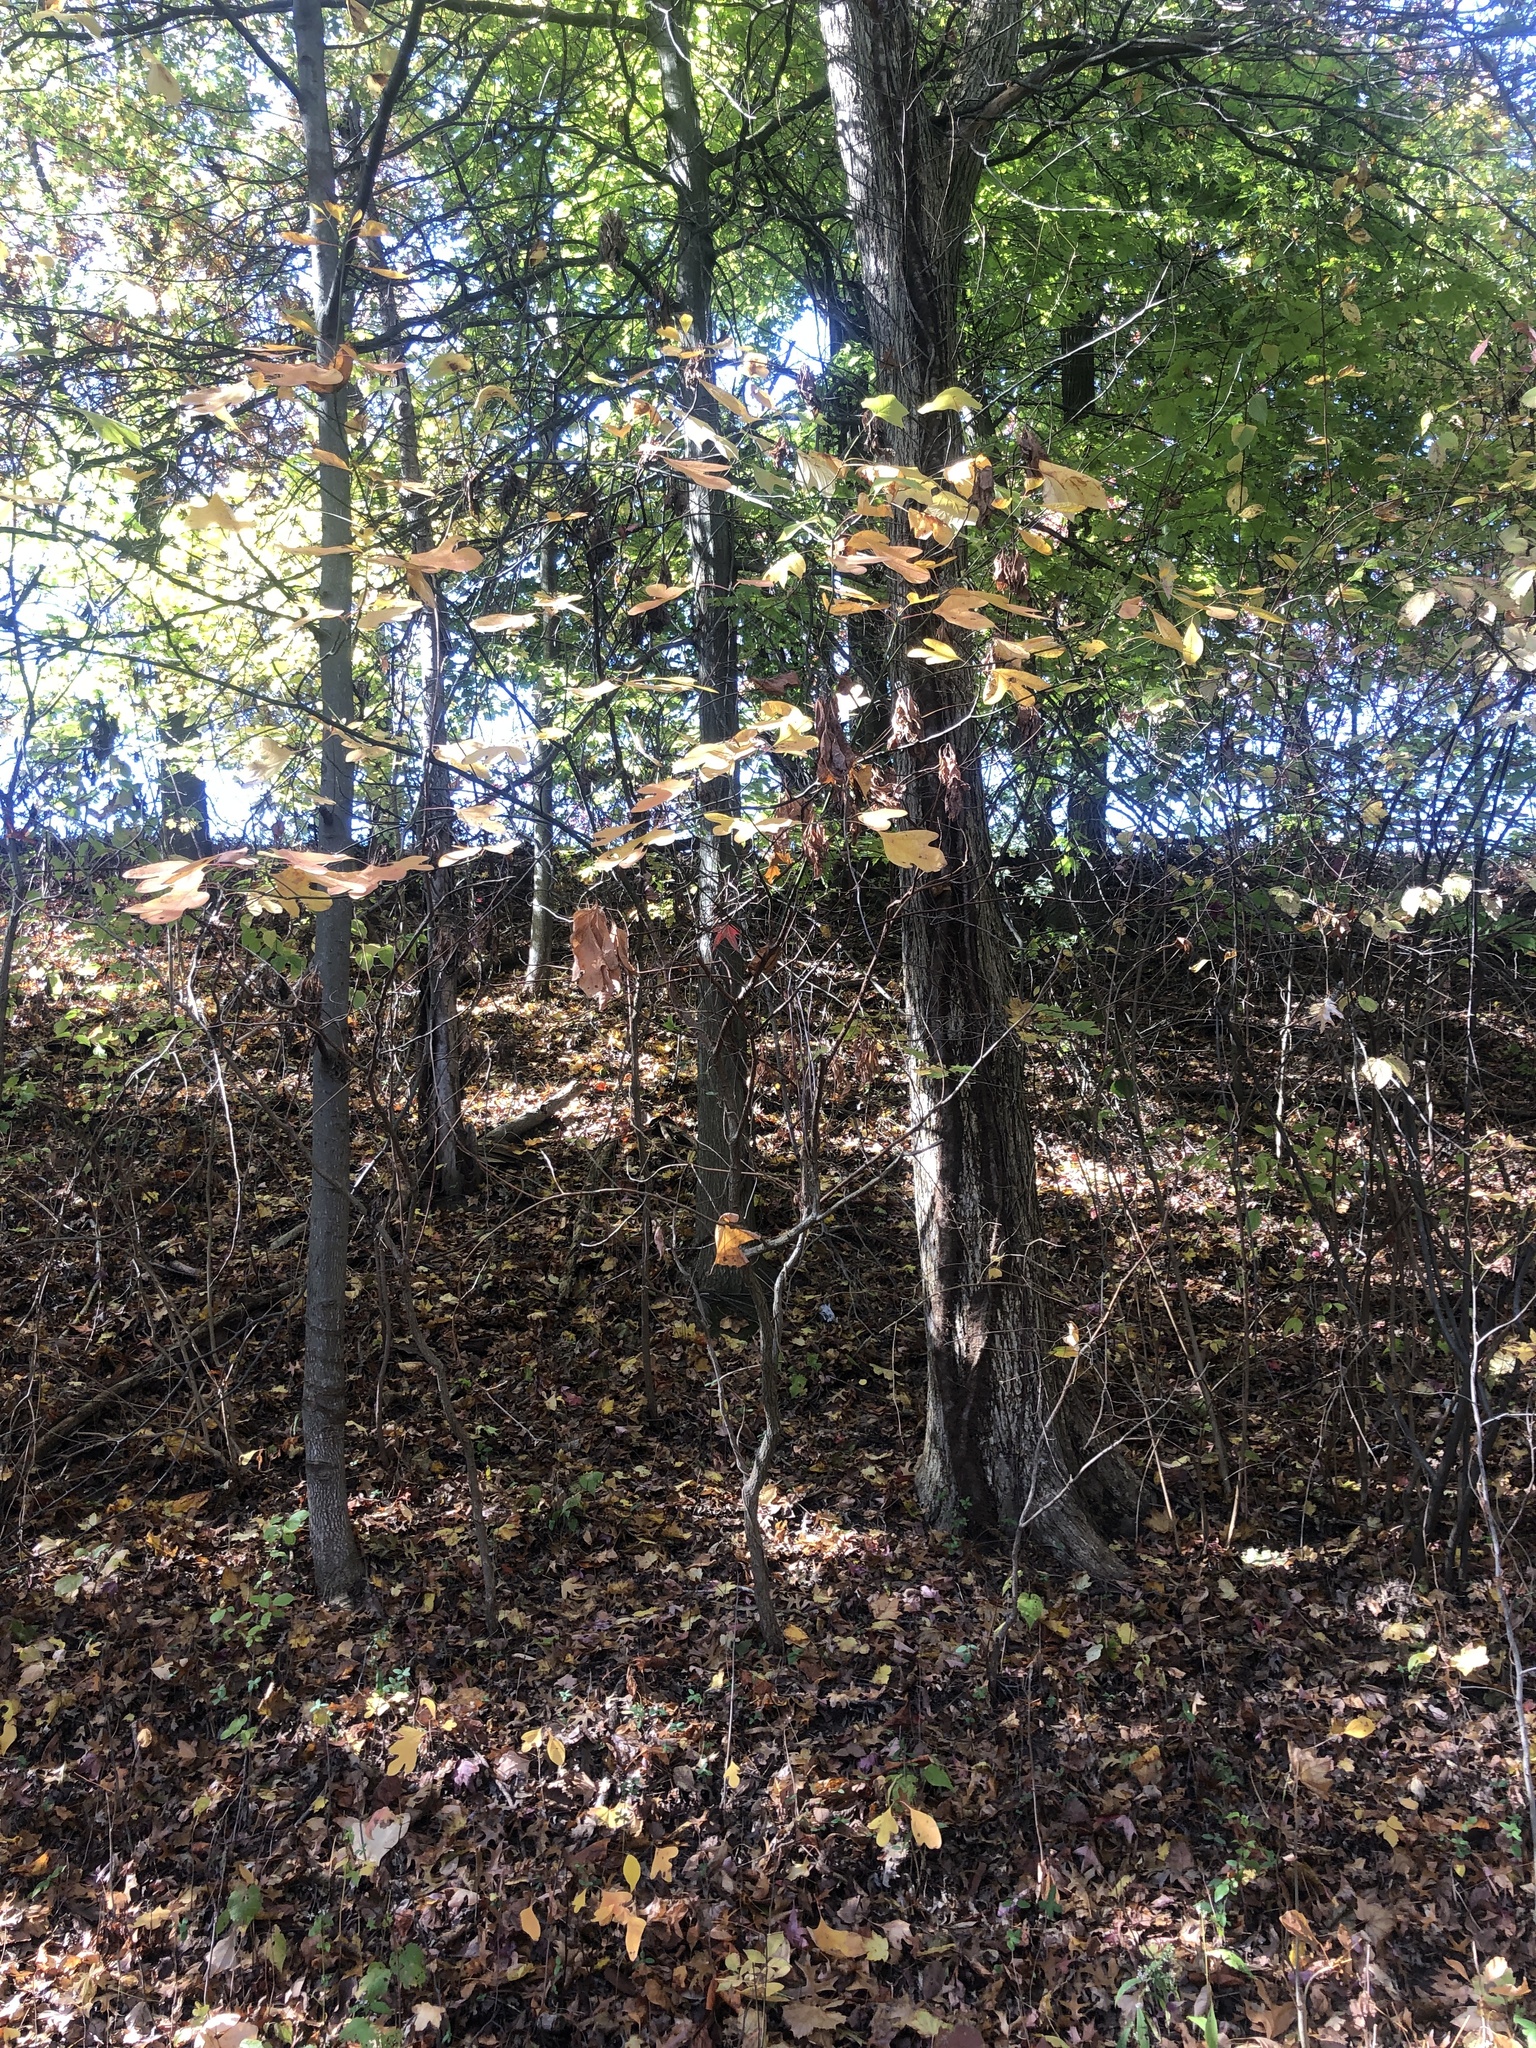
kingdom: Plantae
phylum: Tracheophyta
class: Magnoliopsida
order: Laurales
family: Lauraceae
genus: Sassafras
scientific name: Sassafras albidum
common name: Sassafras
